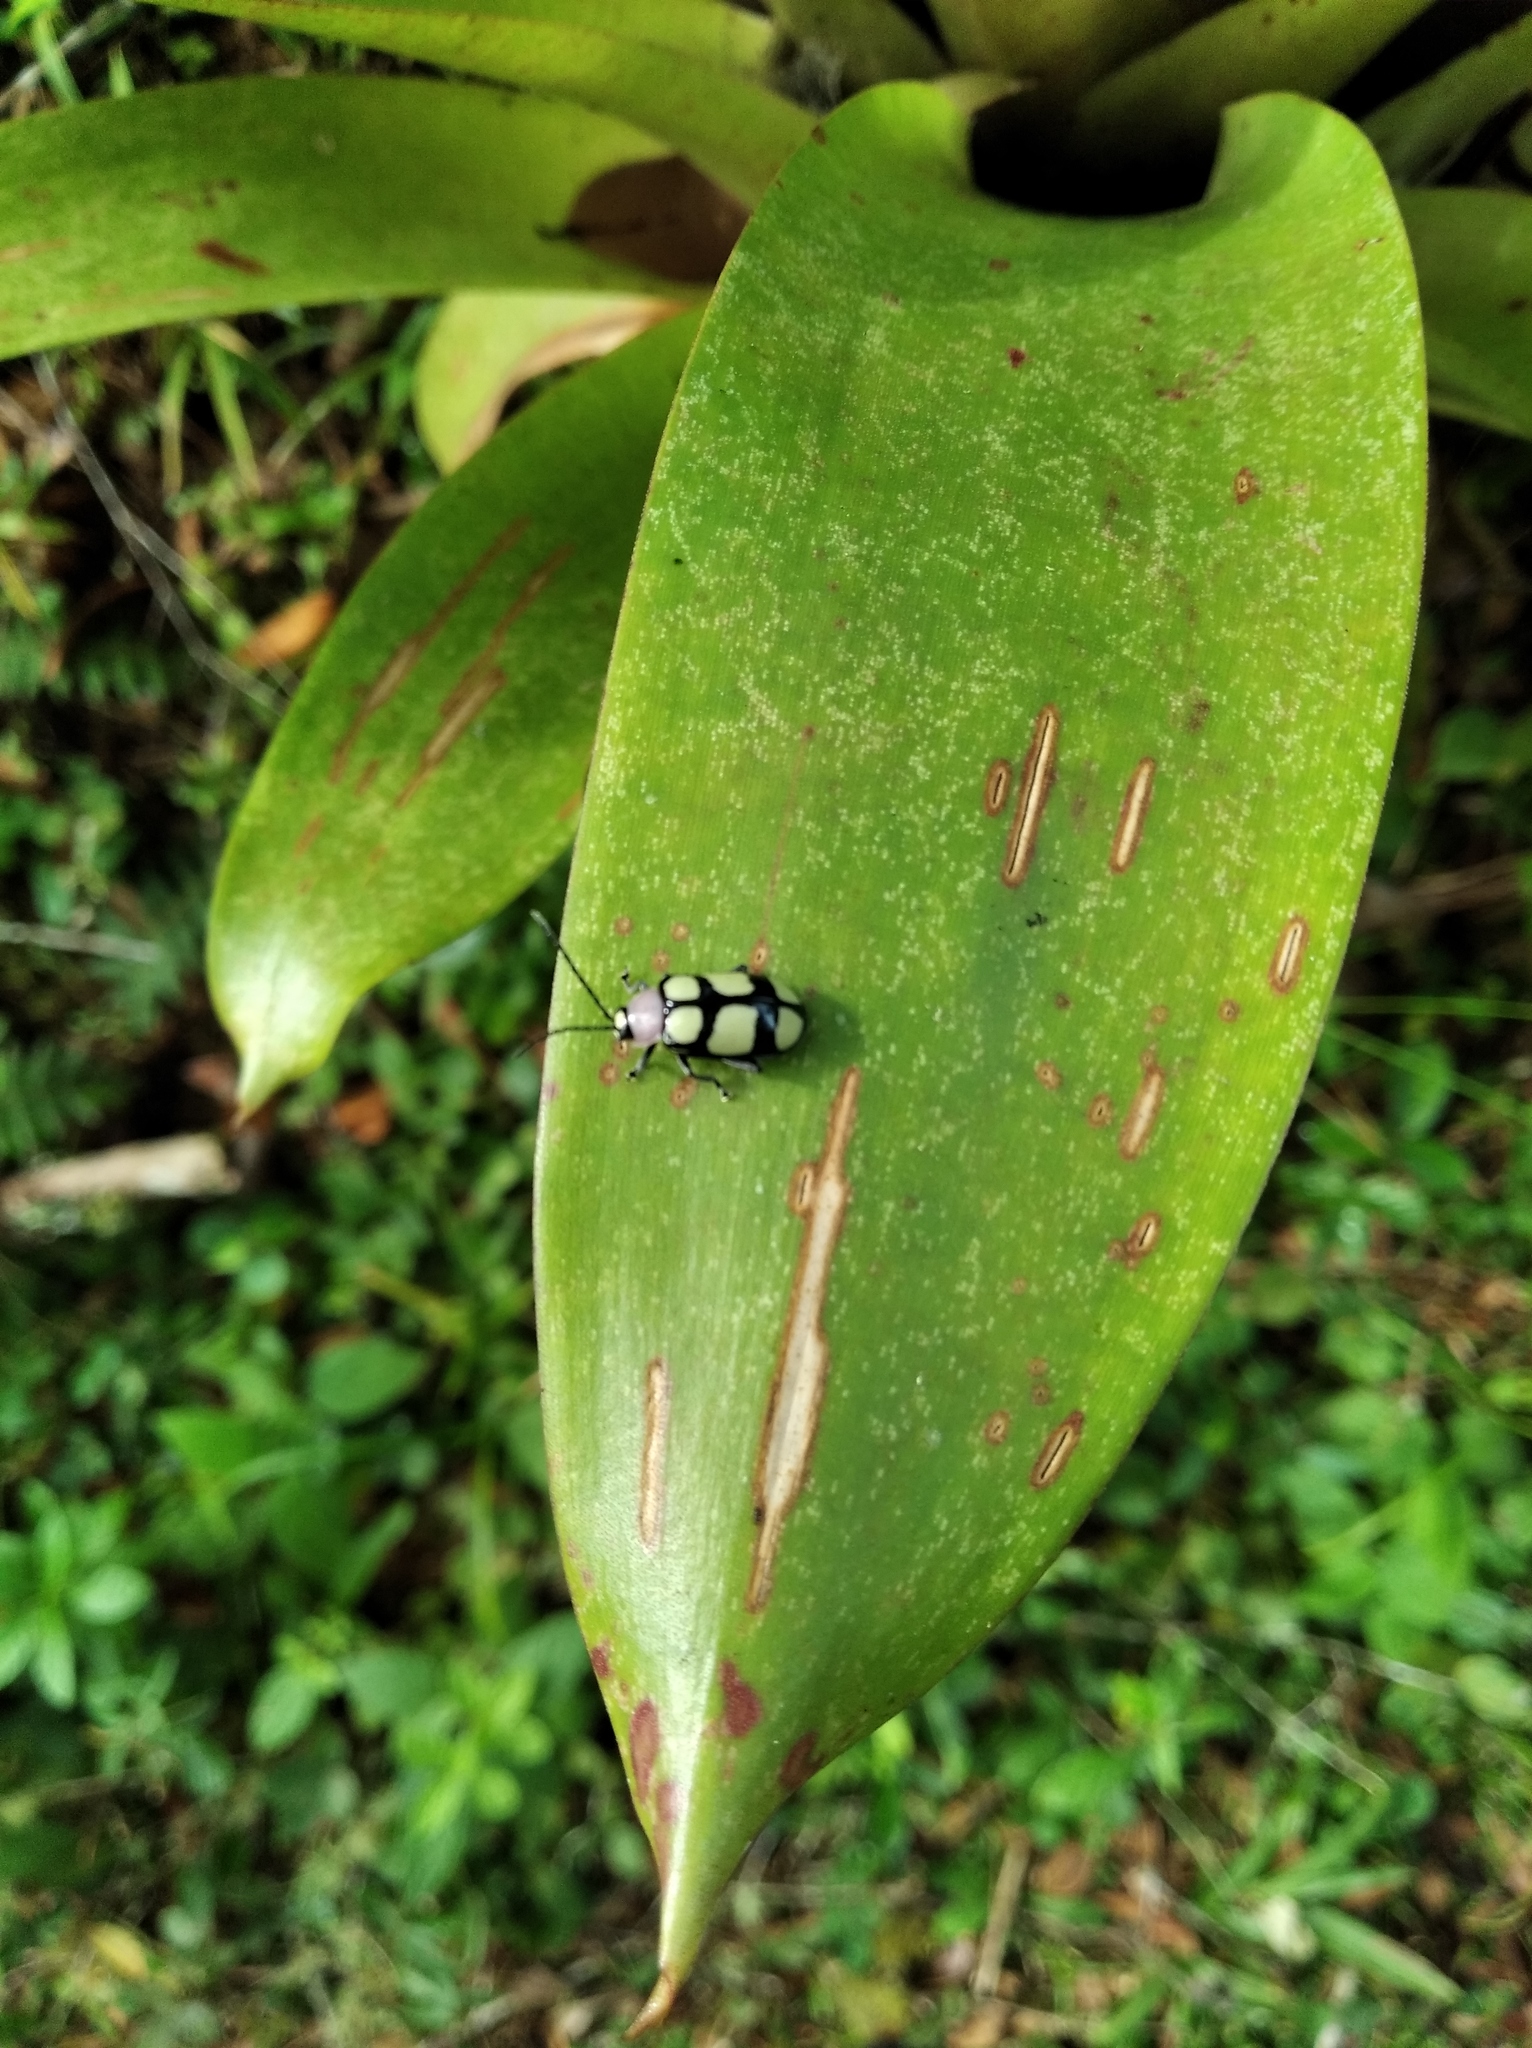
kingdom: Animalia
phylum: Arthropoda
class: Insecta
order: Coleoptera
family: Chrysomelidae
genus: Omophoita
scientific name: Omophoita
